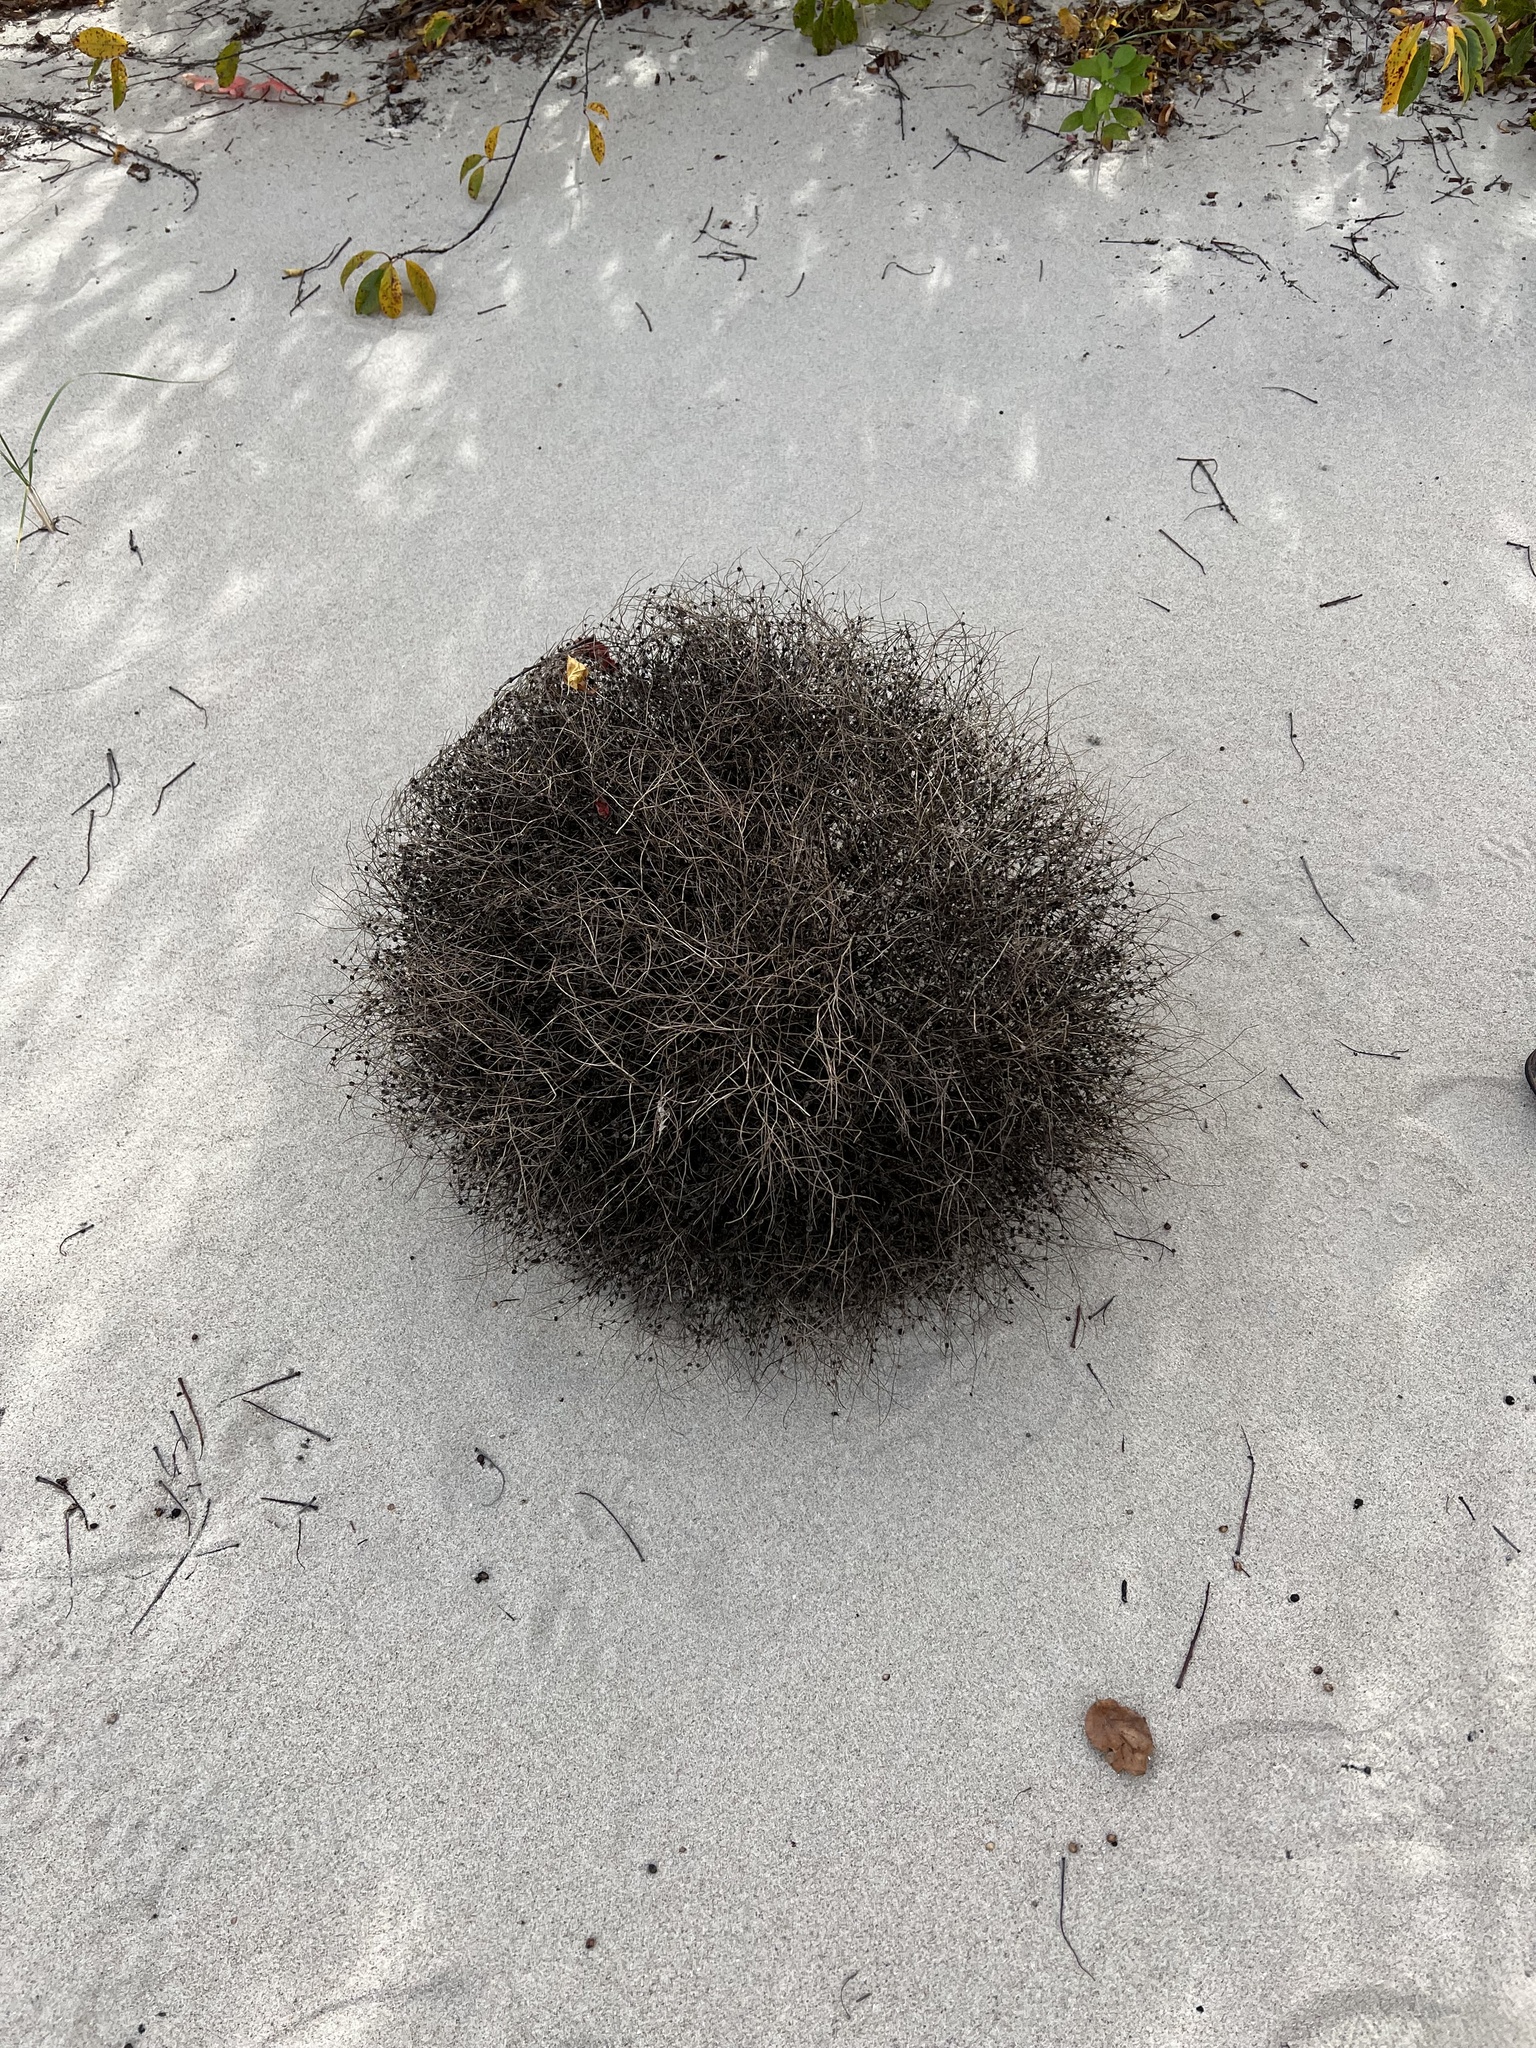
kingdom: Plantae
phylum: Tracheophyta
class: Magnoliopsida
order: Caryophyllales
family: Amaranthaceae
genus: Dysphania
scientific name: Dysphania atriplicifolia
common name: Plains tumbleweed
